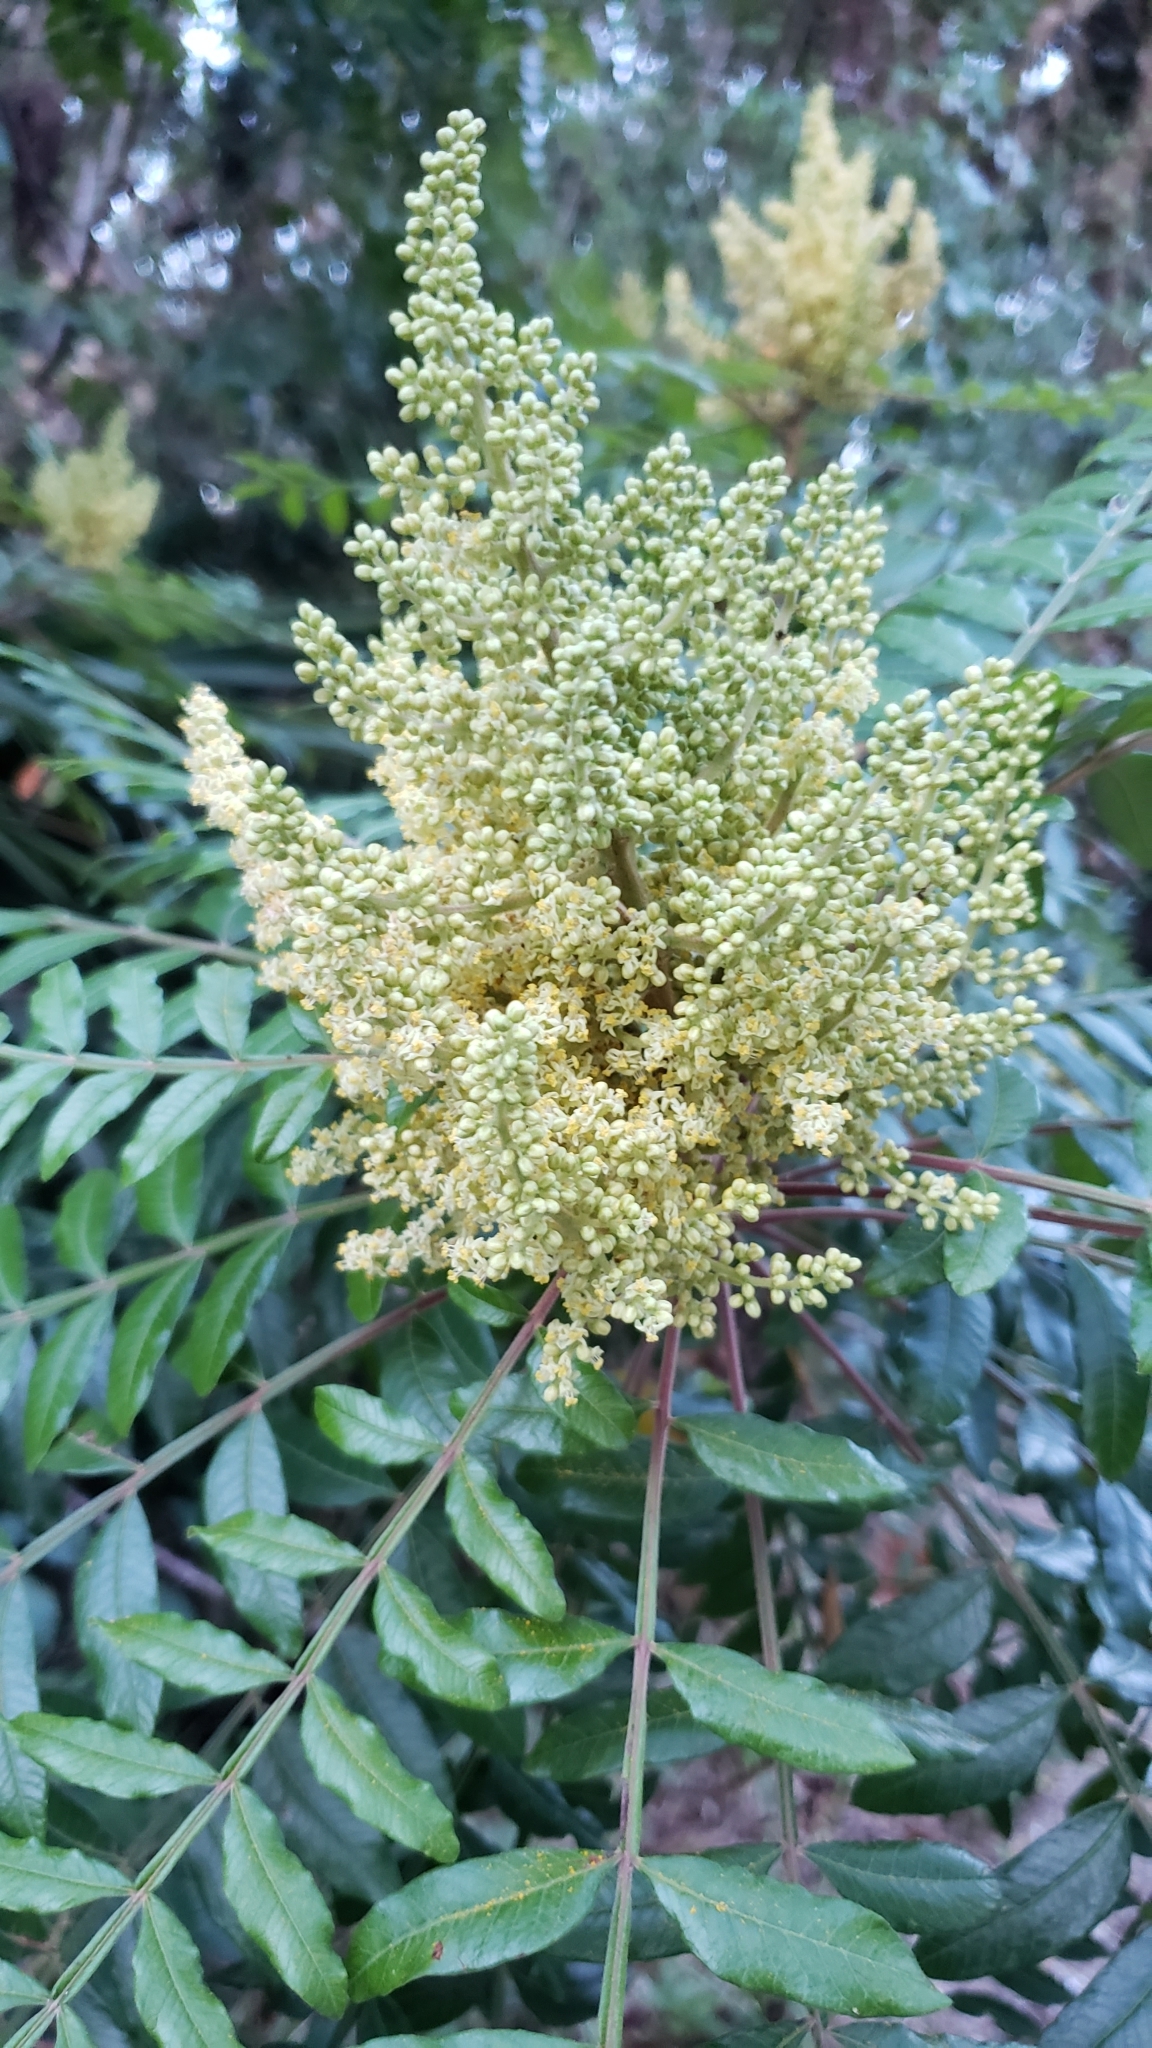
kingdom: Plantae
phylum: Tracheophyta
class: Magnoliopsida
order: Sapindales
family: Anacardiaceae
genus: Rhus
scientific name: Rhus copallina
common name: Shining sumac
